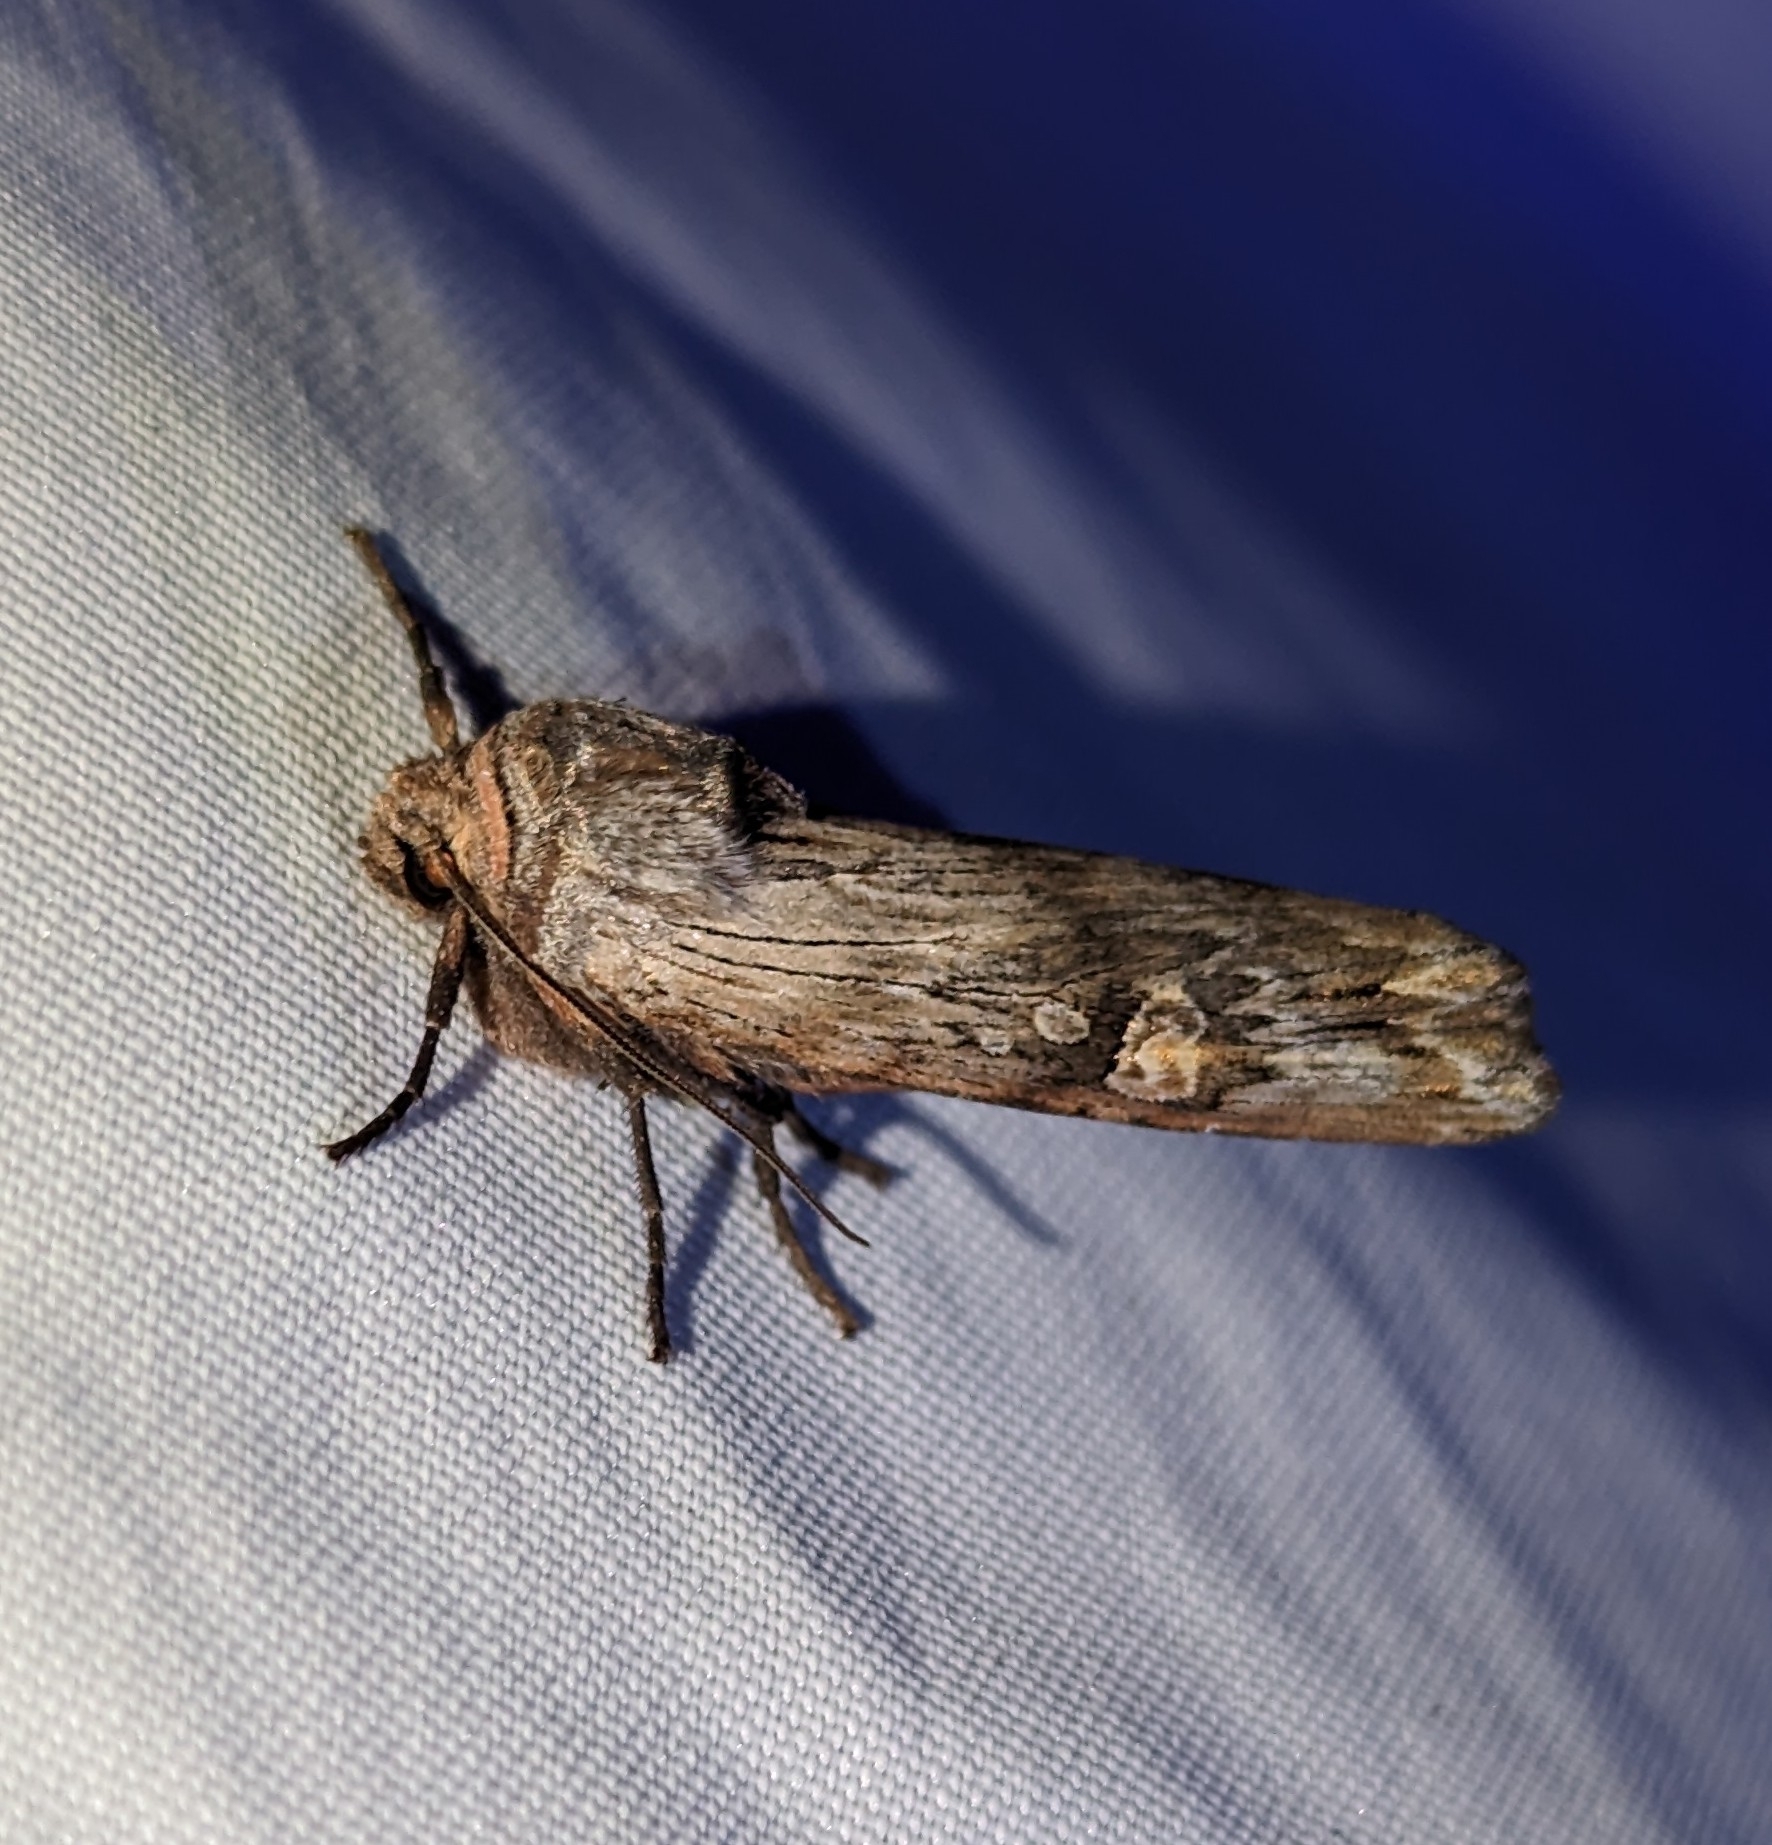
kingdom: Animalia
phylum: Arthropoda
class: Insecta
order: Lepidoptera
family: Noctuidae
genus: Xylena
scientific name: Xylena germana
